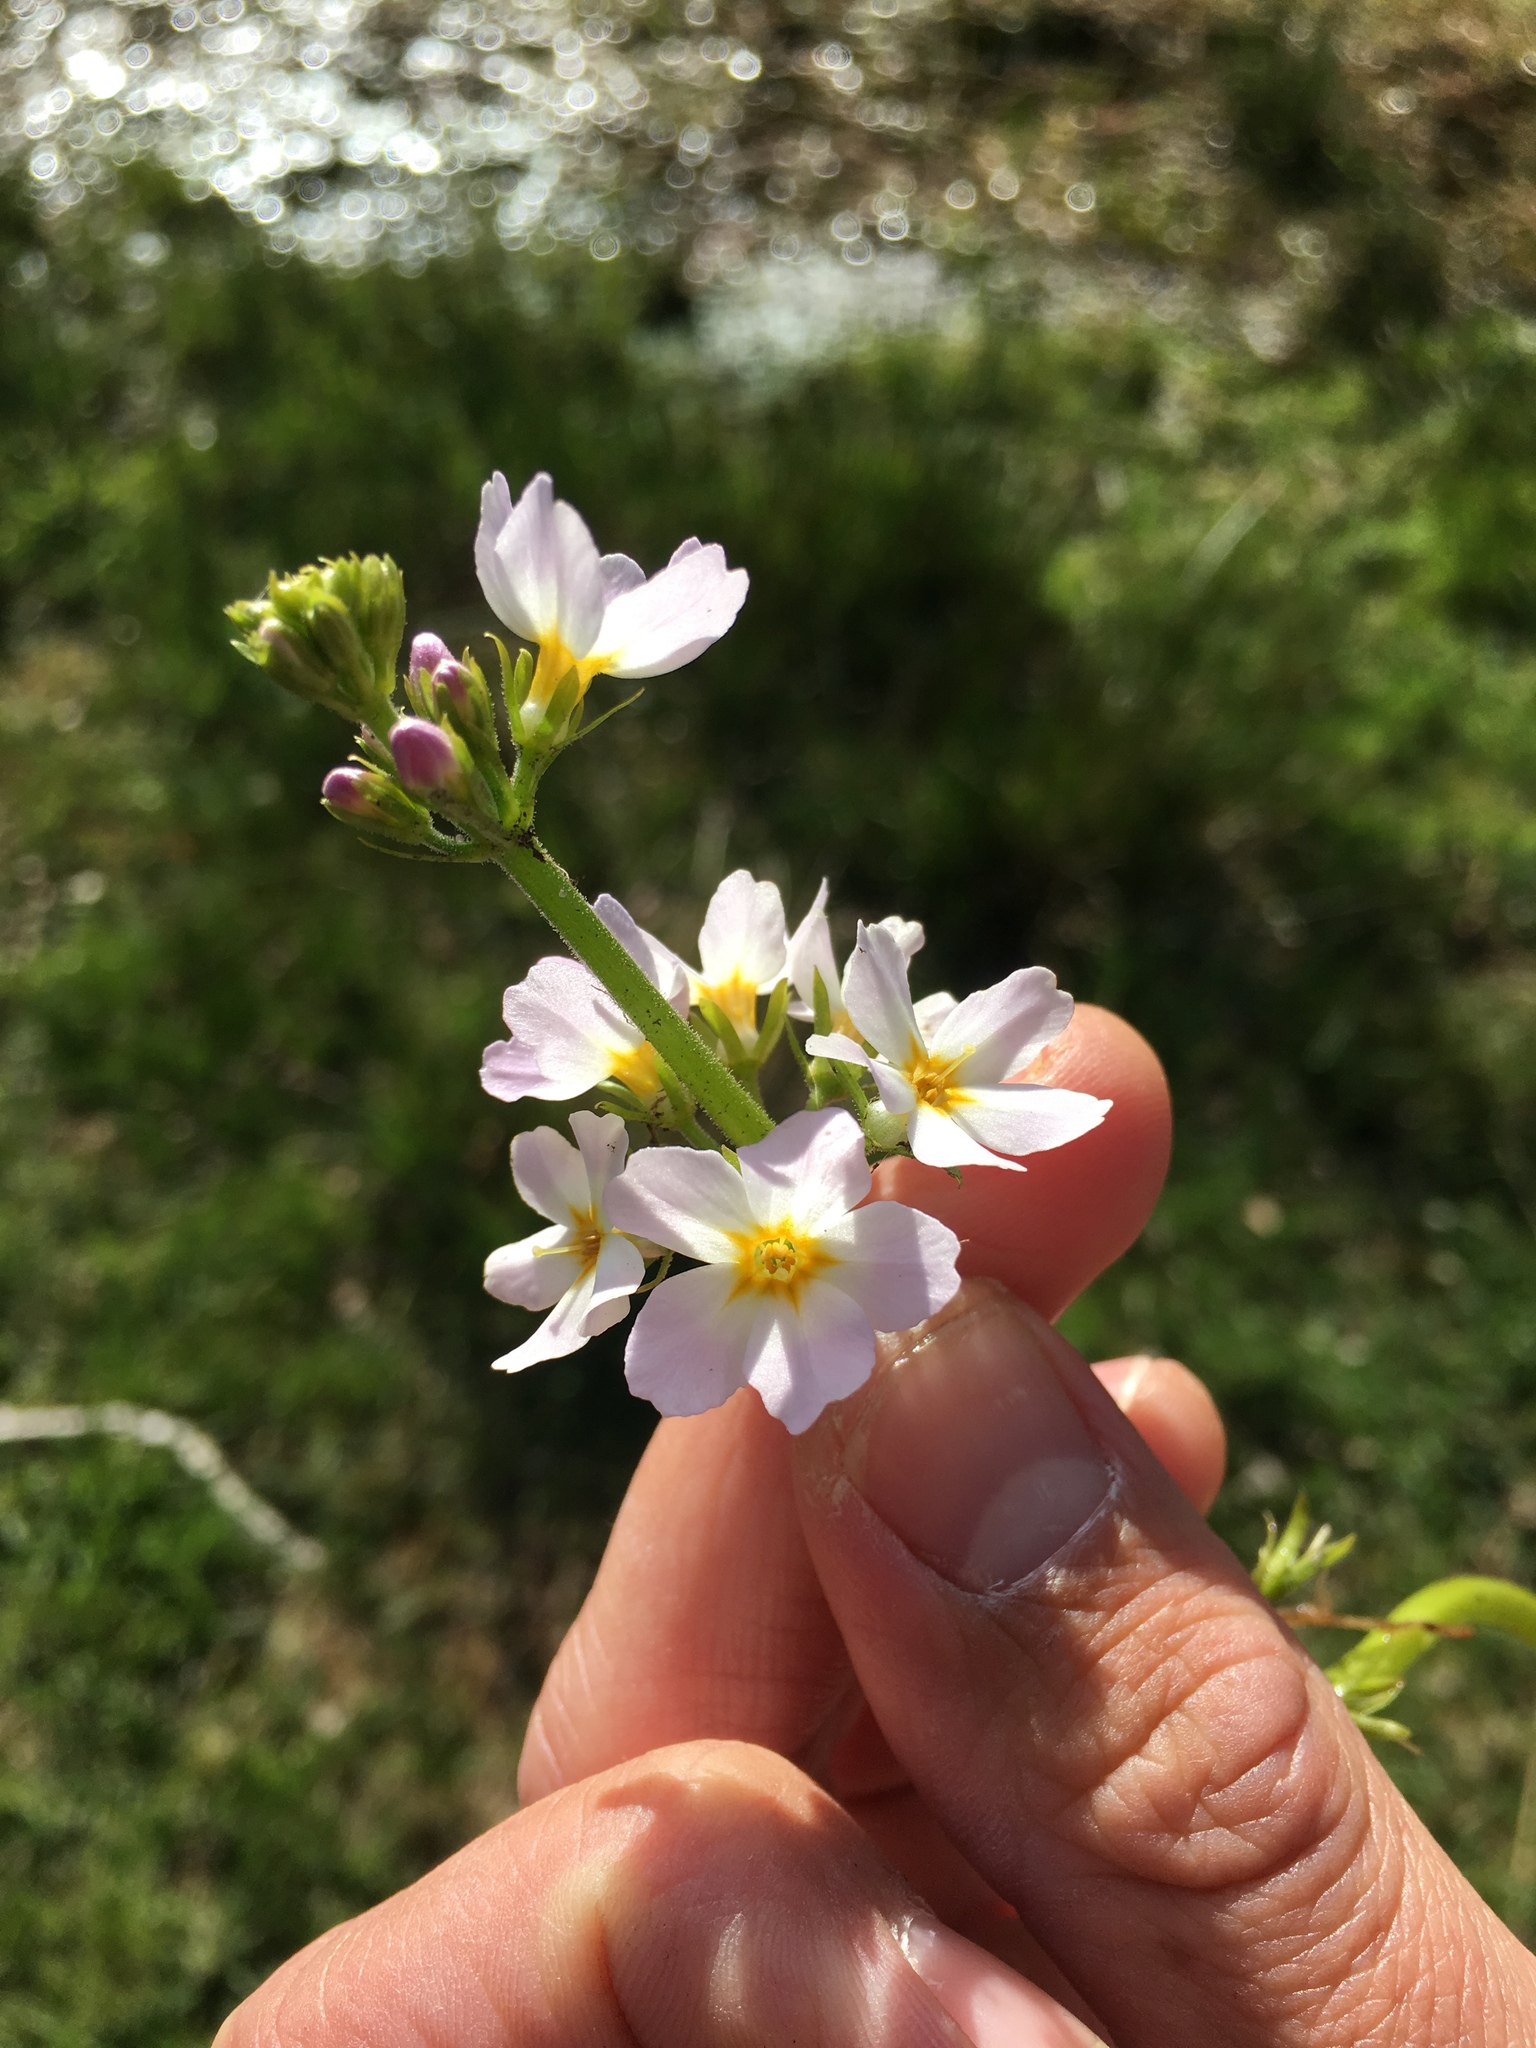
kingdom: Plantae
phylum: Tracheophyta
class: Magnoliopsida
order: Ericales
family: Primulaceae
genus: Hottonia
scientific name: Hottonia palustris
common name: Water-violet
